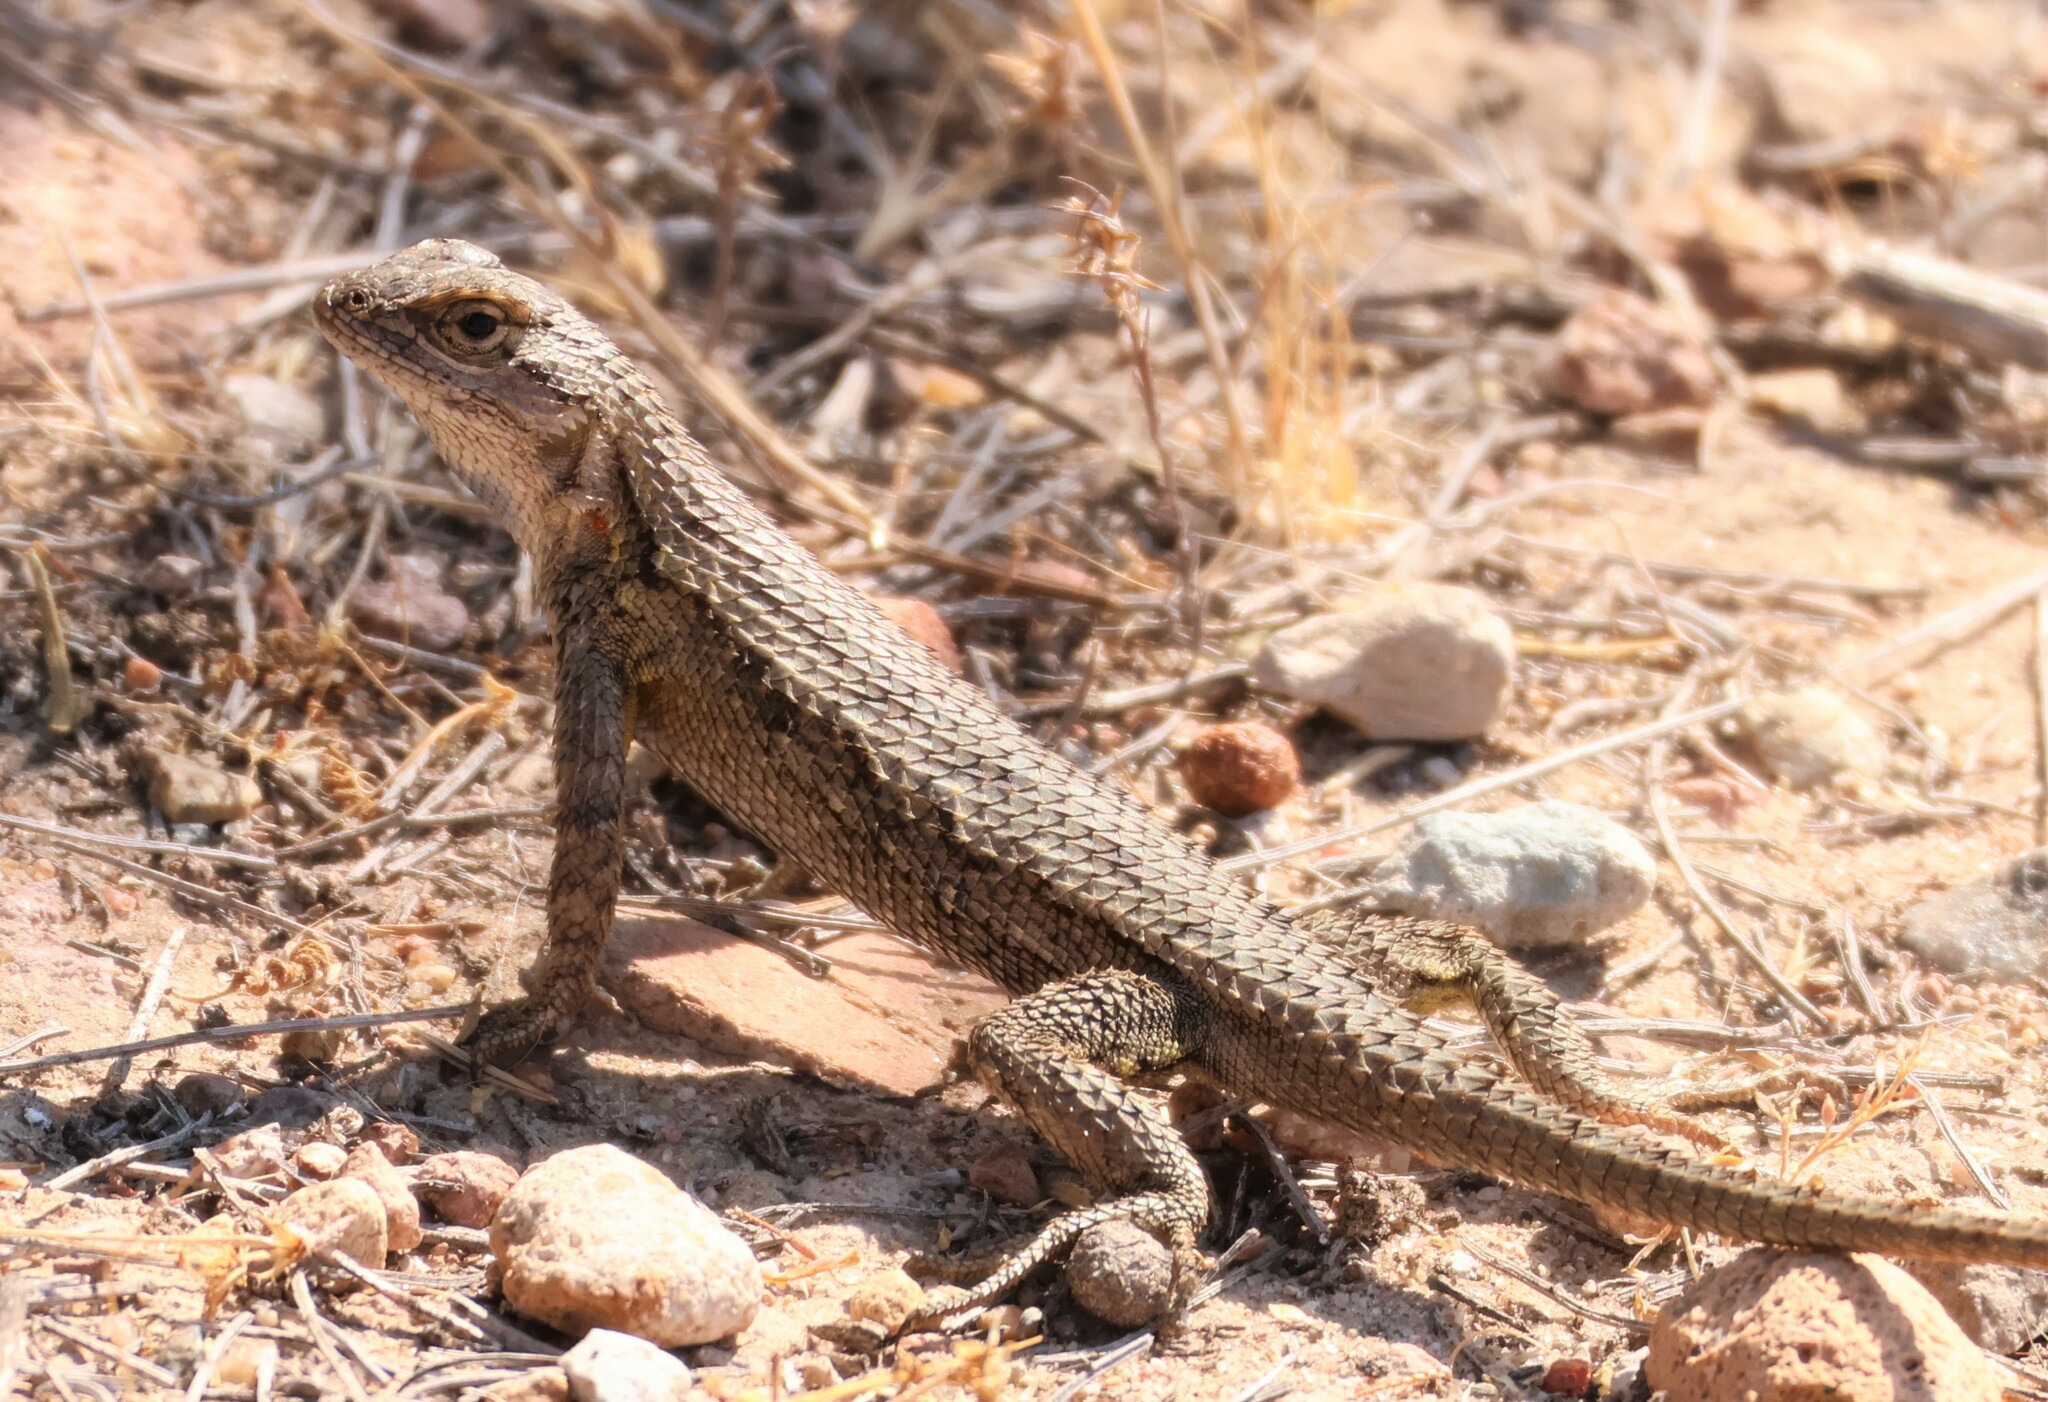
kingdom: Animalia
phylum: Chordata
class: Squamata
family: Phrynosomatidae
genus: Sceloporus
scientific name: Sceloporus occidentalis
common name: Western fence lizard
